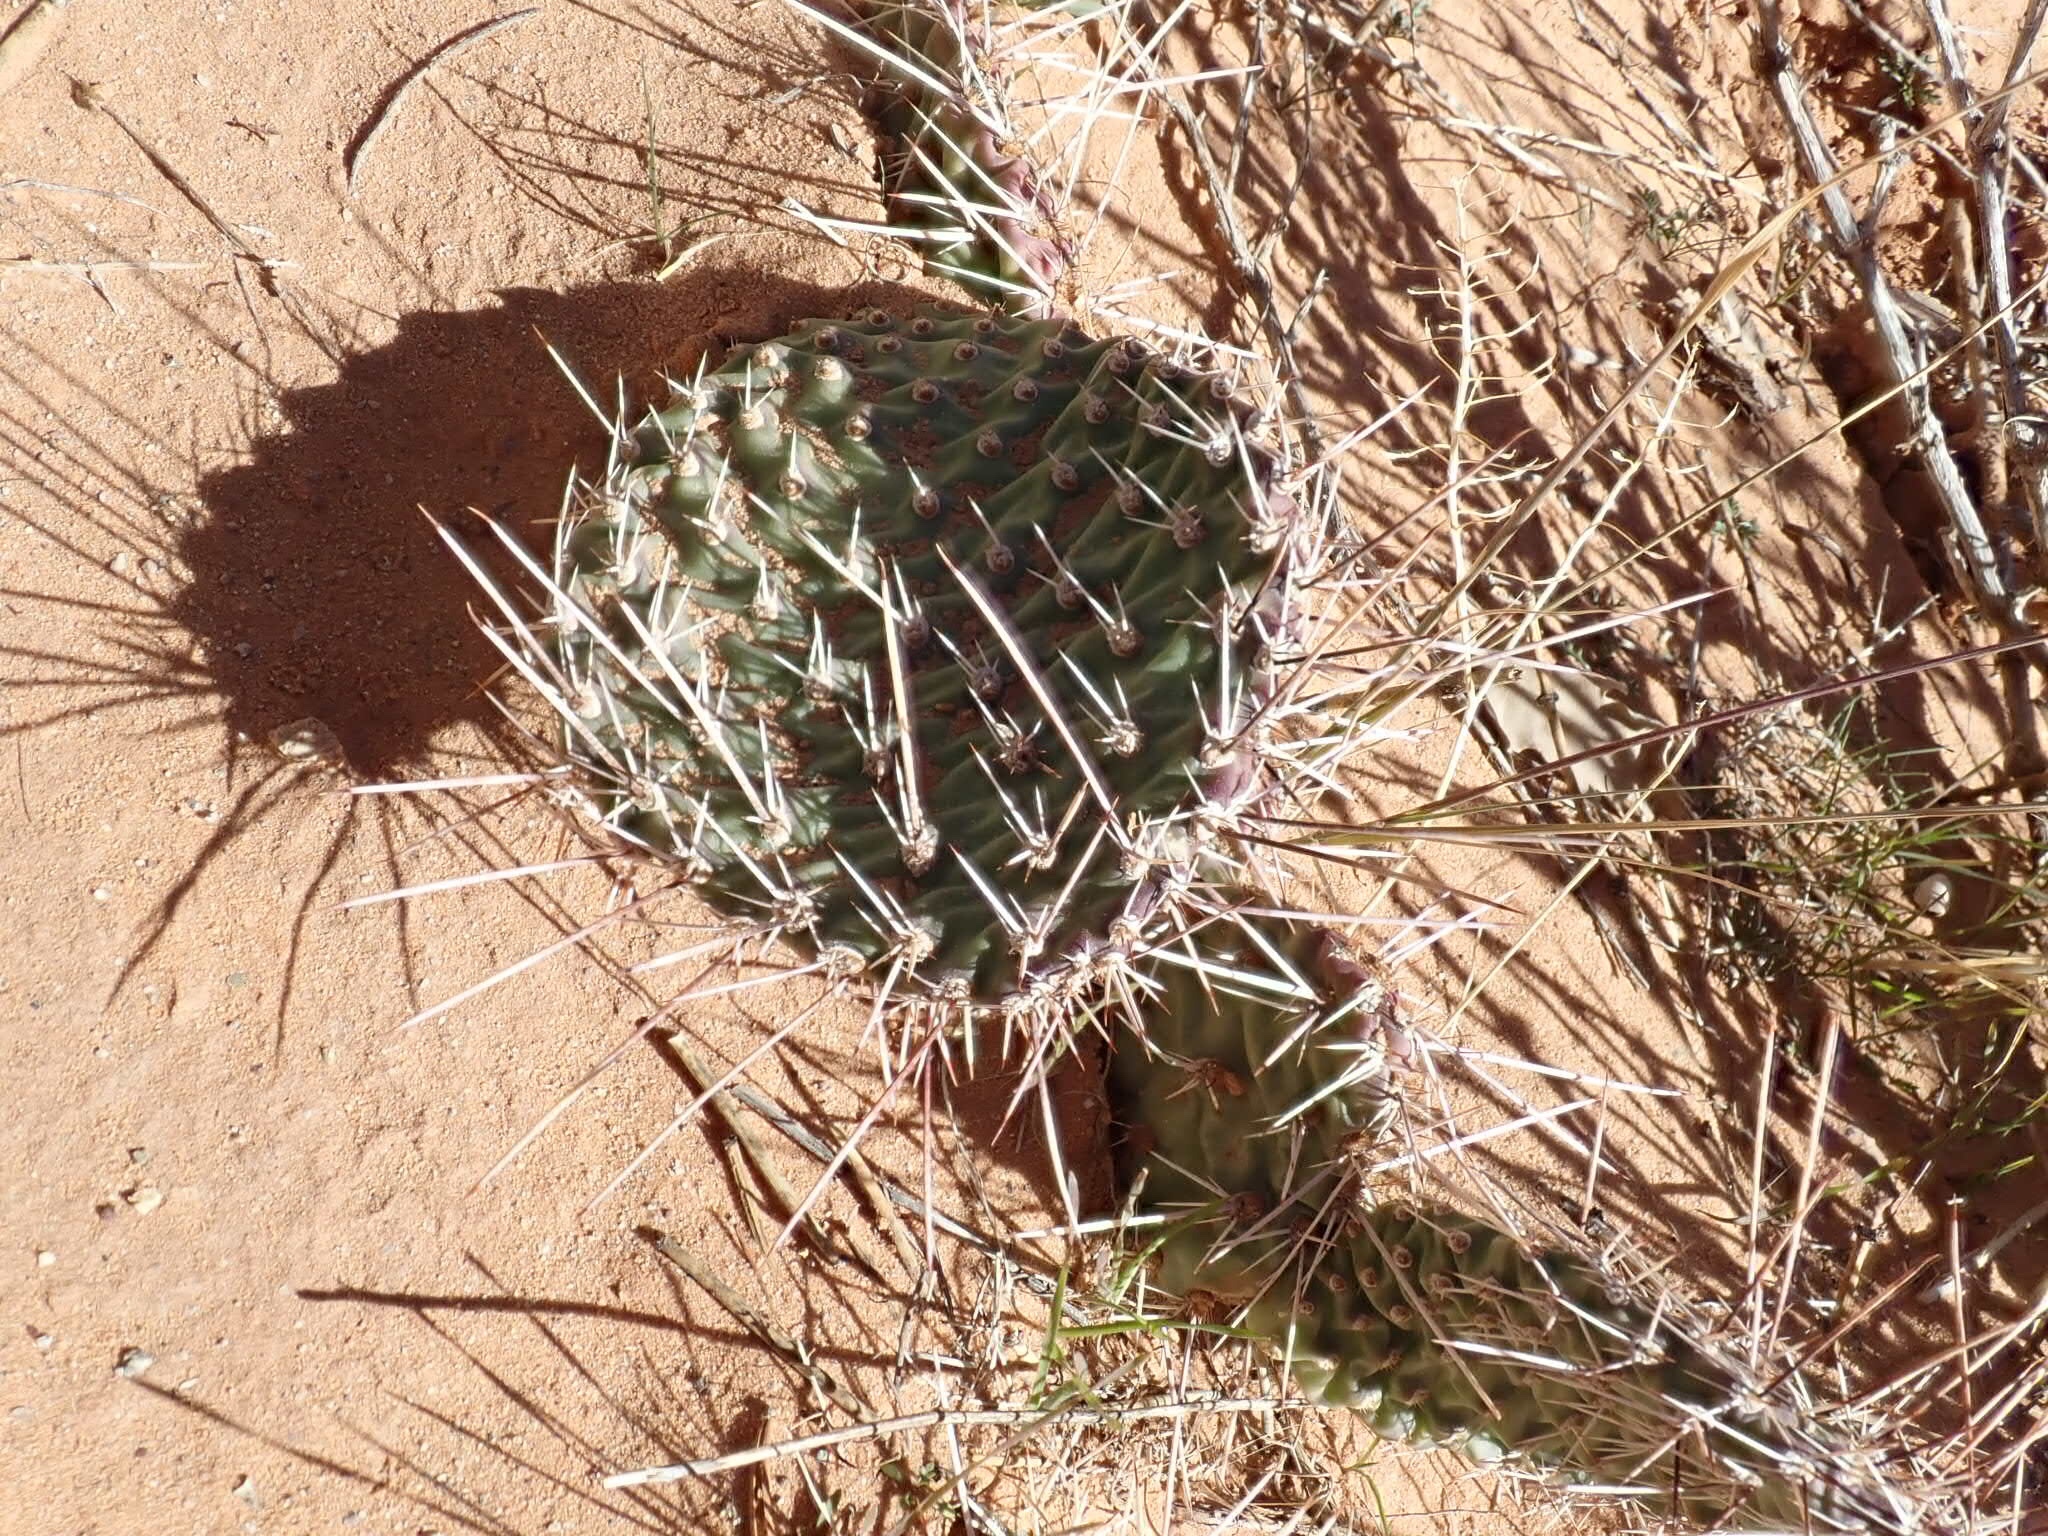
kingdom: Plantae
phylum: Tracheophyta
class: Magnoliopsida
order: Caryophyllales
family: Cactaceae
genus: Opuntia
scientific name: Opuntia polyacantha
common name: Plains prickly-pear
